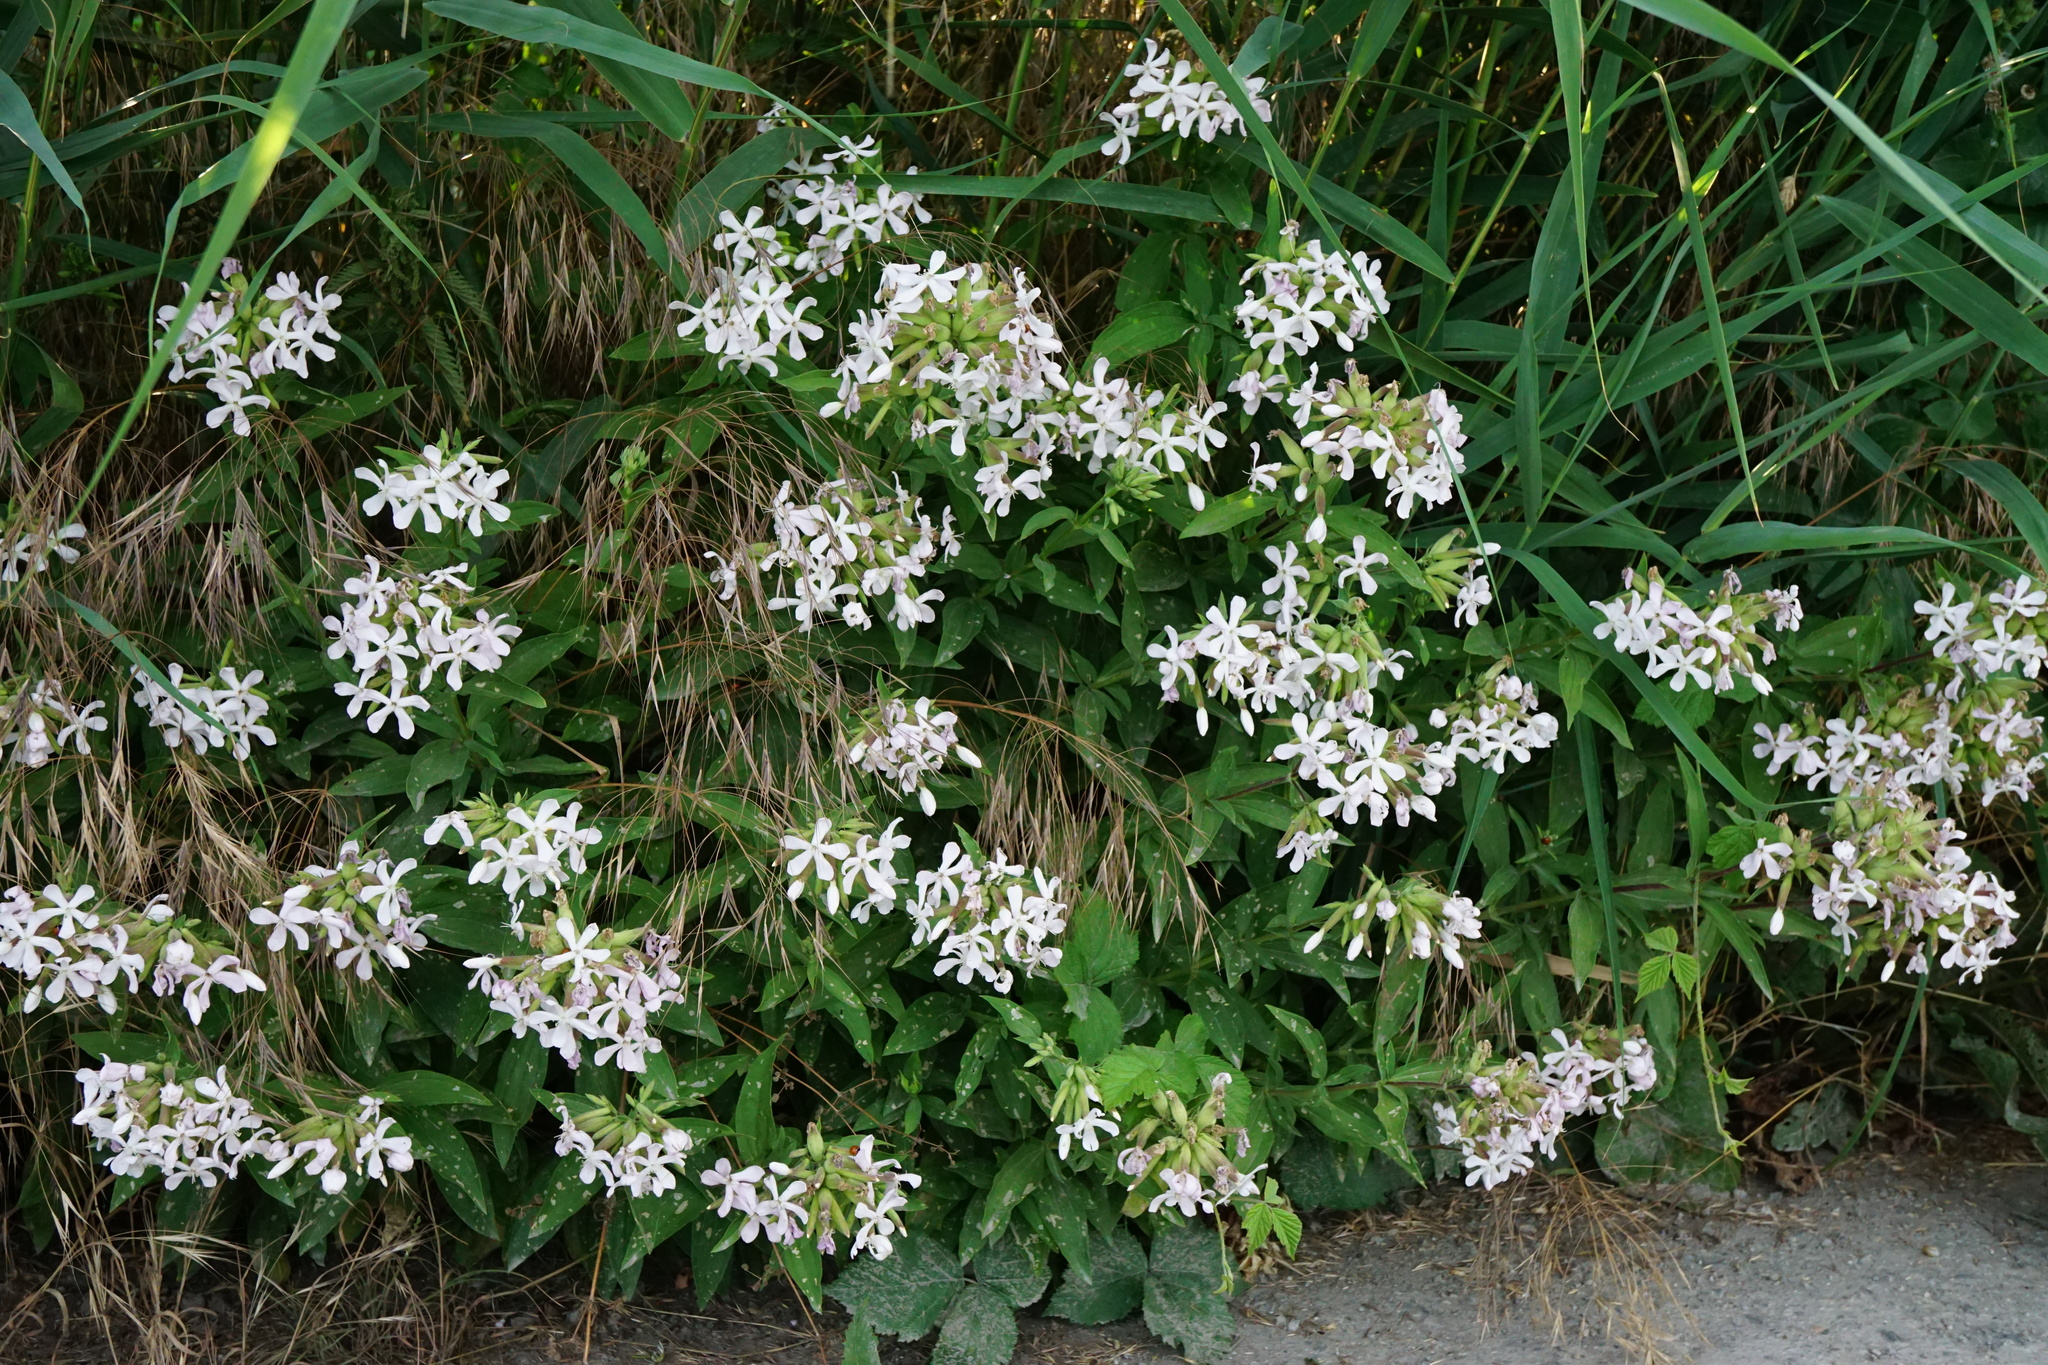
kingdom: Plantae
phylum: Tracheophyta
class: Magnoliopsida
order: Caryophyllales
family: Caryophyllaceae
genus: Saponaria
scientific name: Saponaria officinalis
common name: Soapwort
